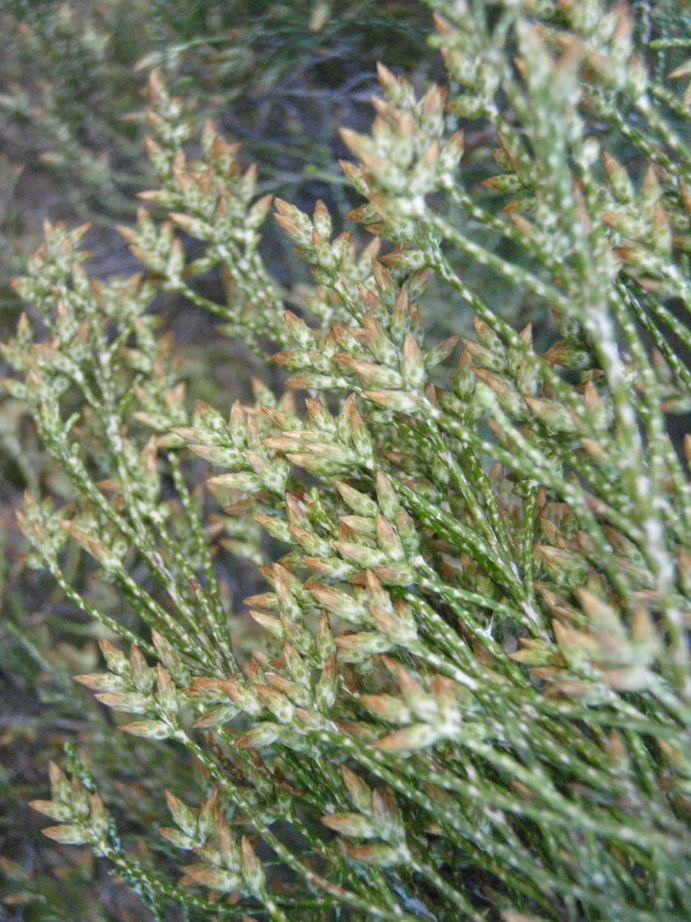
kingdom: Plantae
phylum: Tracheophyta
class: Magnoliopsida
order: Asterales
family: Asteraceae
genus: Dicerothamnus
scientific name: Dicerothamnus rhinocerotis
